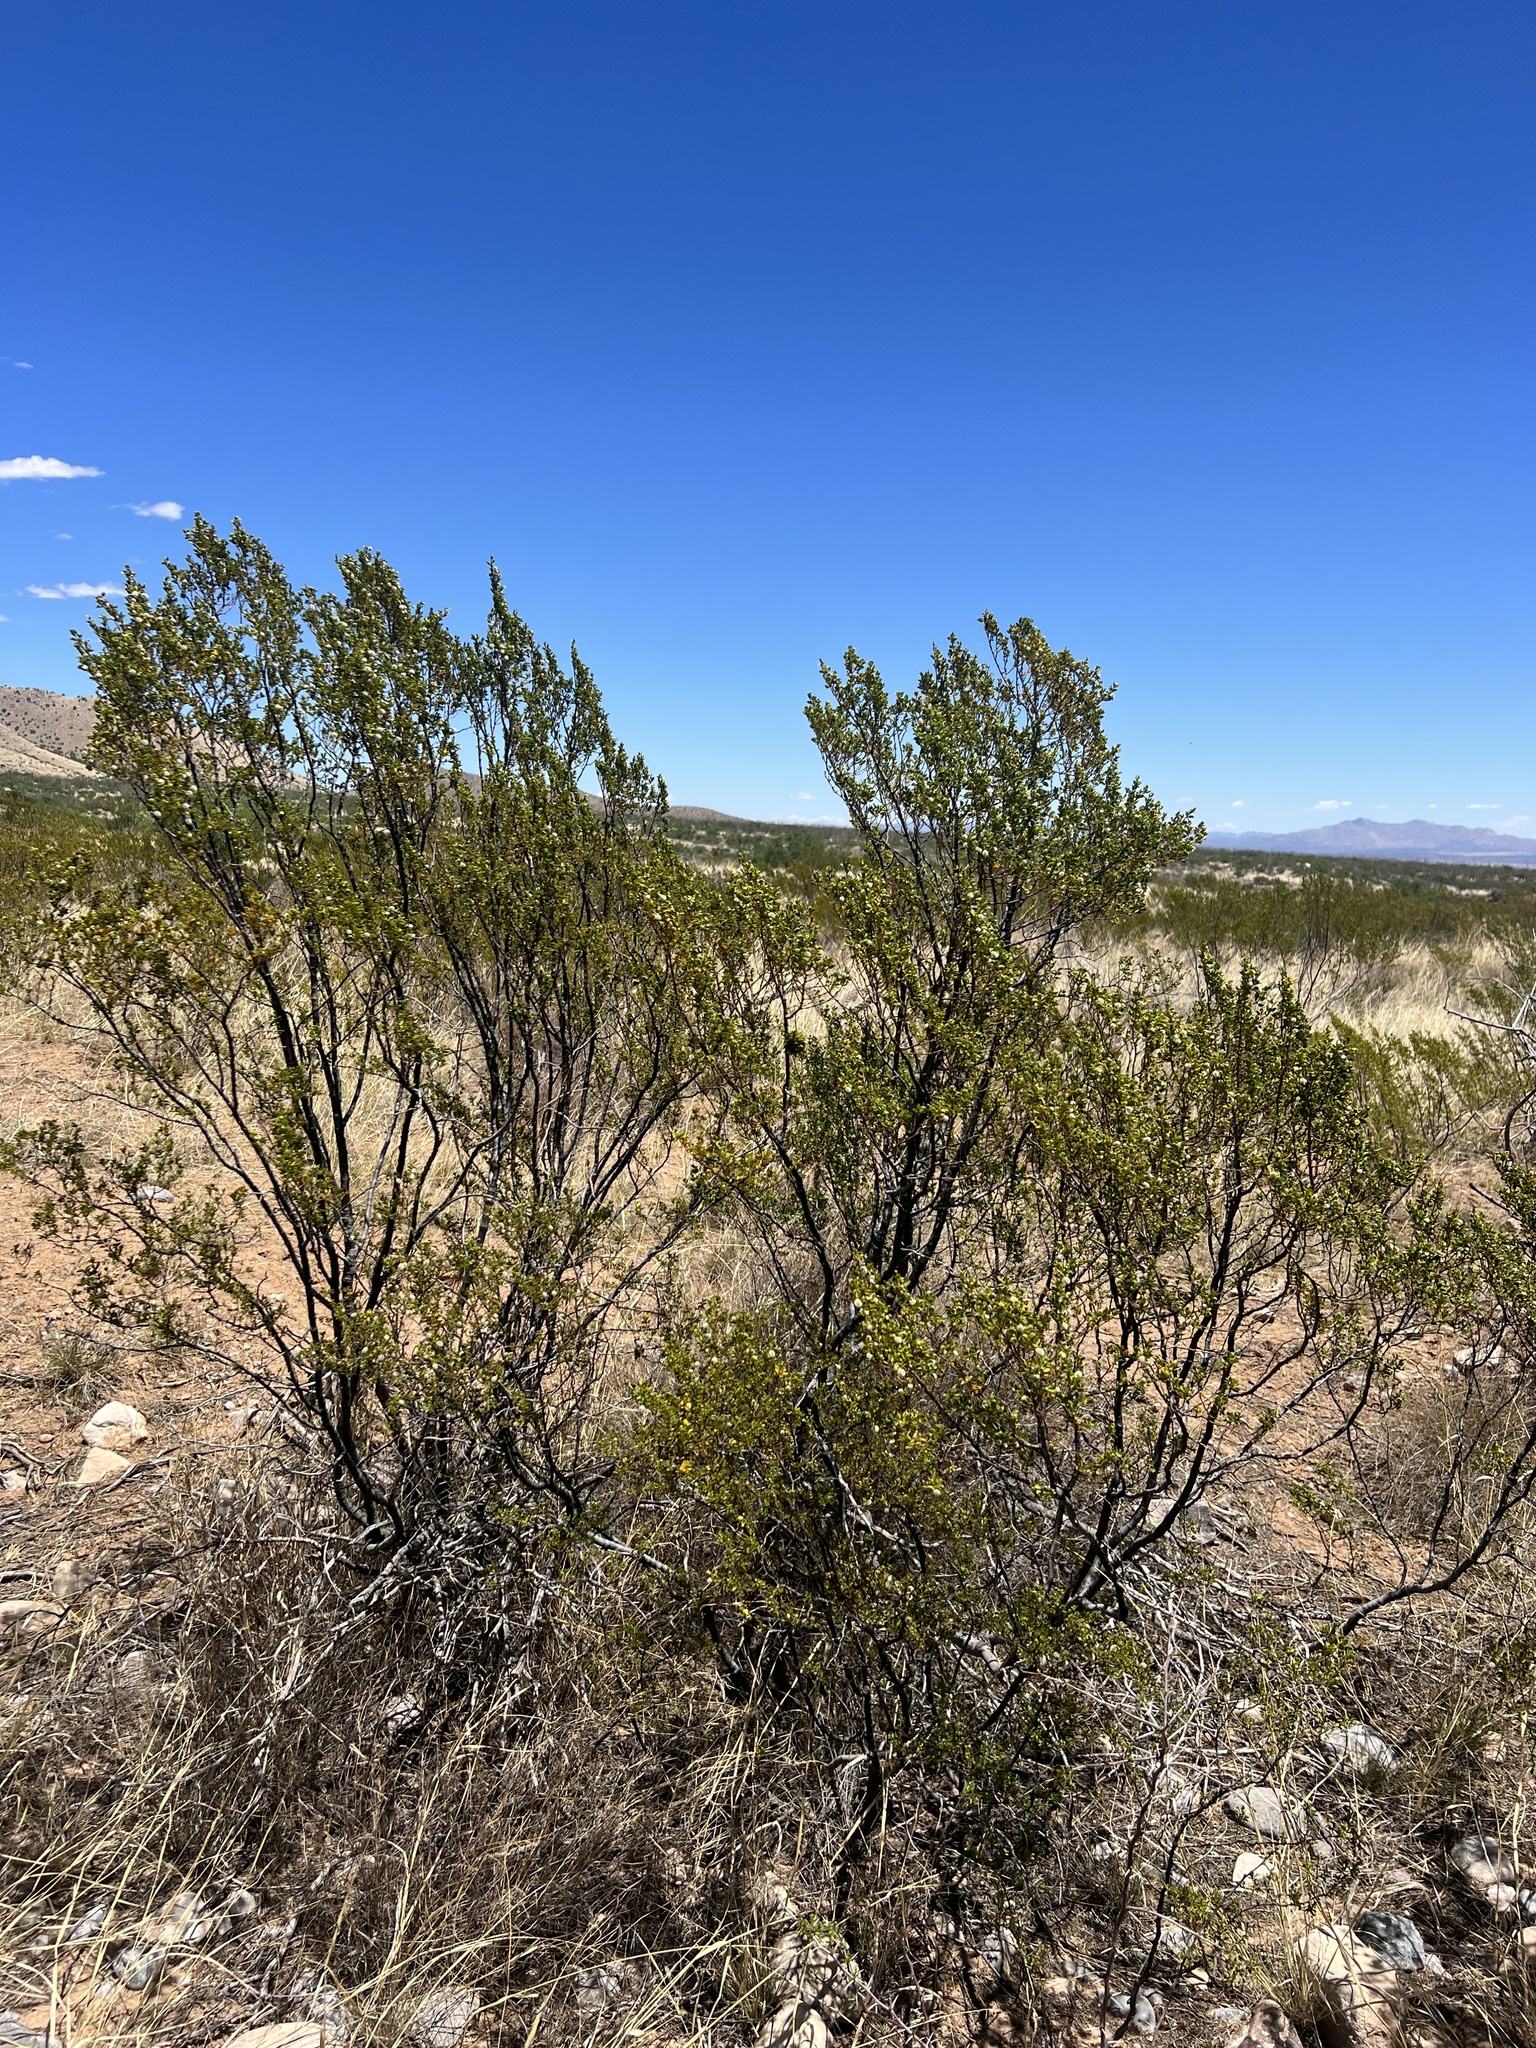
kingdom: Plantae
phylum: Tracheophyta
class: Magnoliopsida
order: Zygophyllales
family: Zygophyllaceae
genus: Larrea
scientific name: Larrea tridentata
